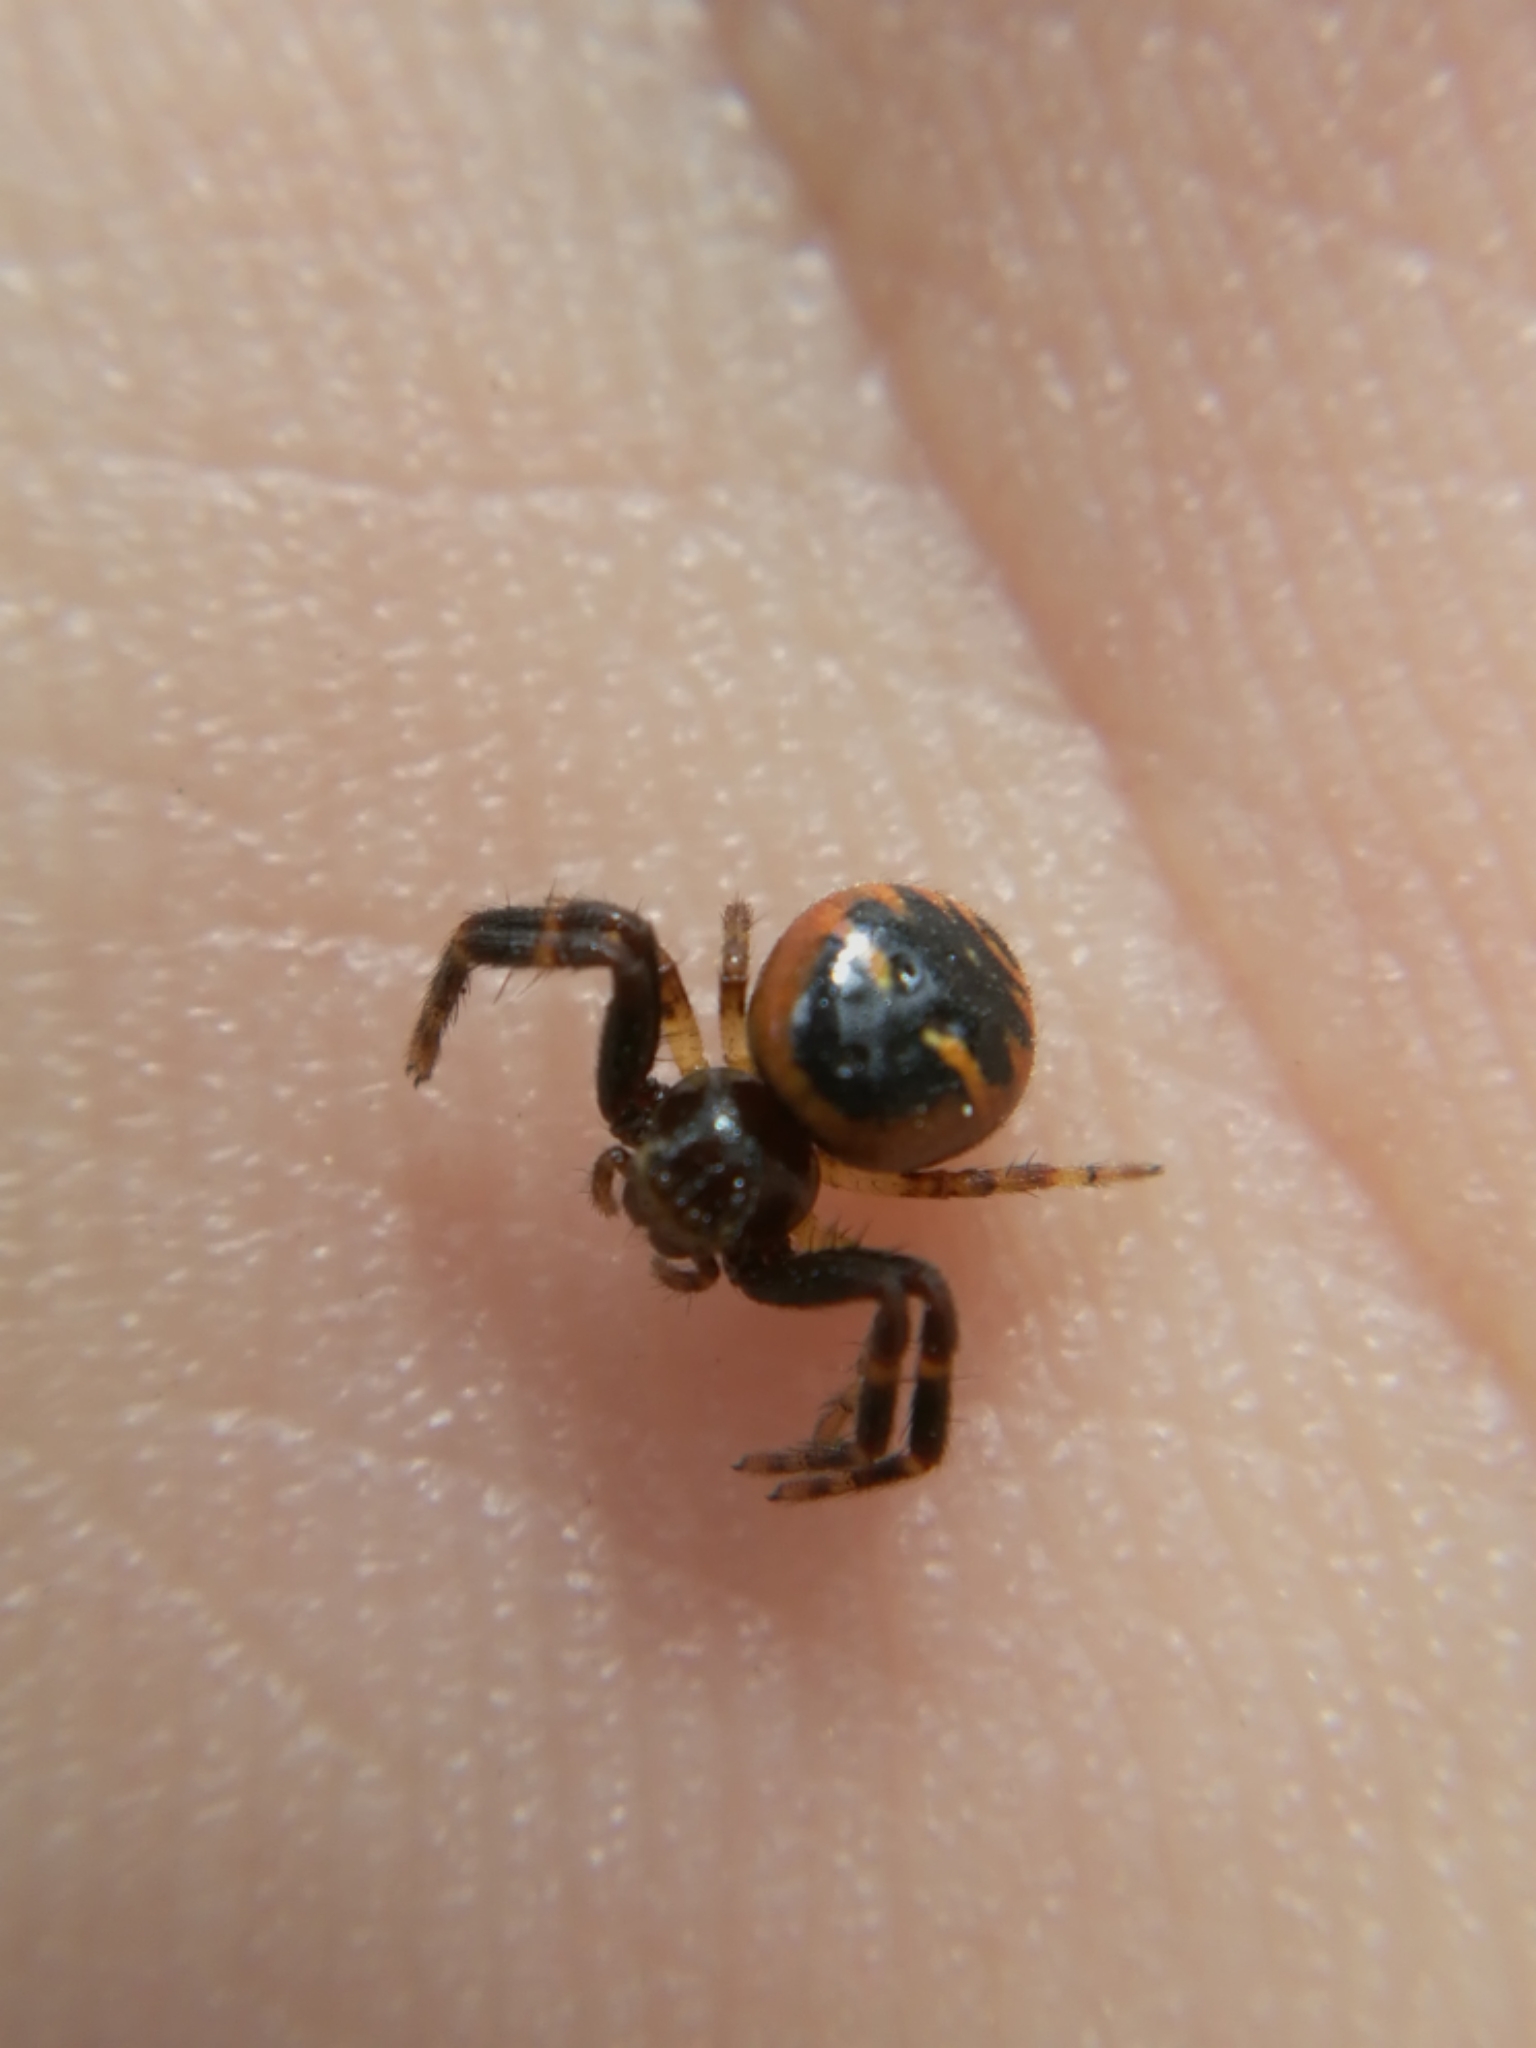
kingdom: Animalia
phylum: Arthropoda
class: Arachnida
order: Araneae
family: Thomisidae
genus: Synema
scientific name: Synema globosum
